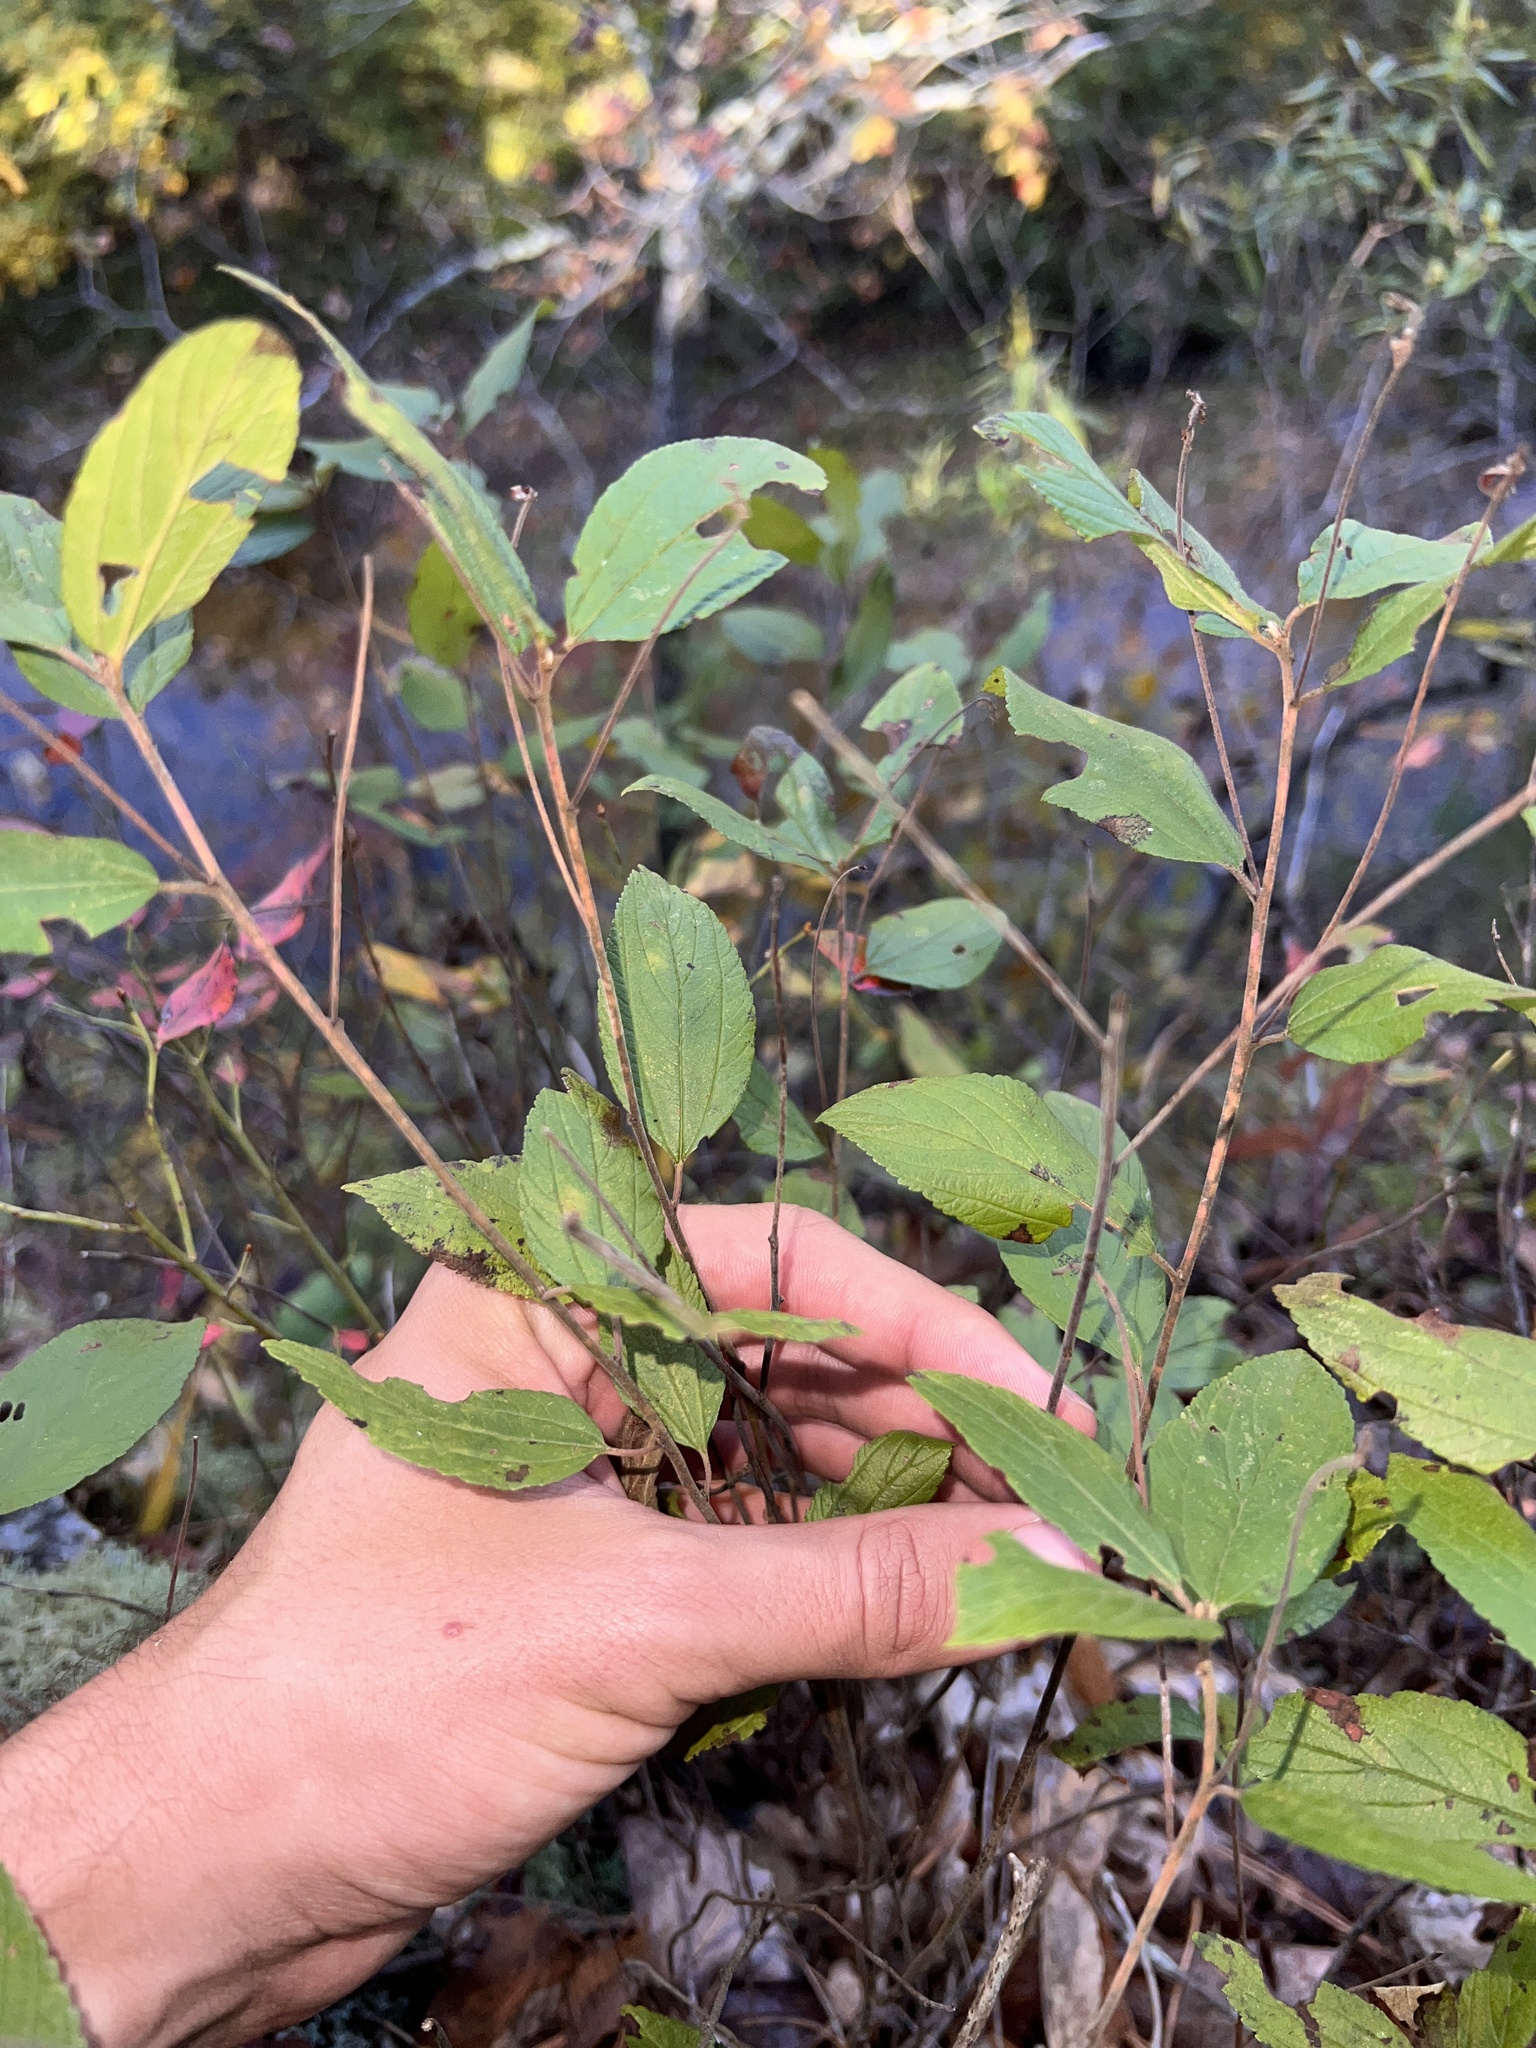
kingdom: Plantae
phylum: Tracheophyta
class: Magnoliopsida
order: Rosales
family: Rhamnaceae
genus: Ceanothus
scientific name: Ceanothus americanus
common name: Redroot
